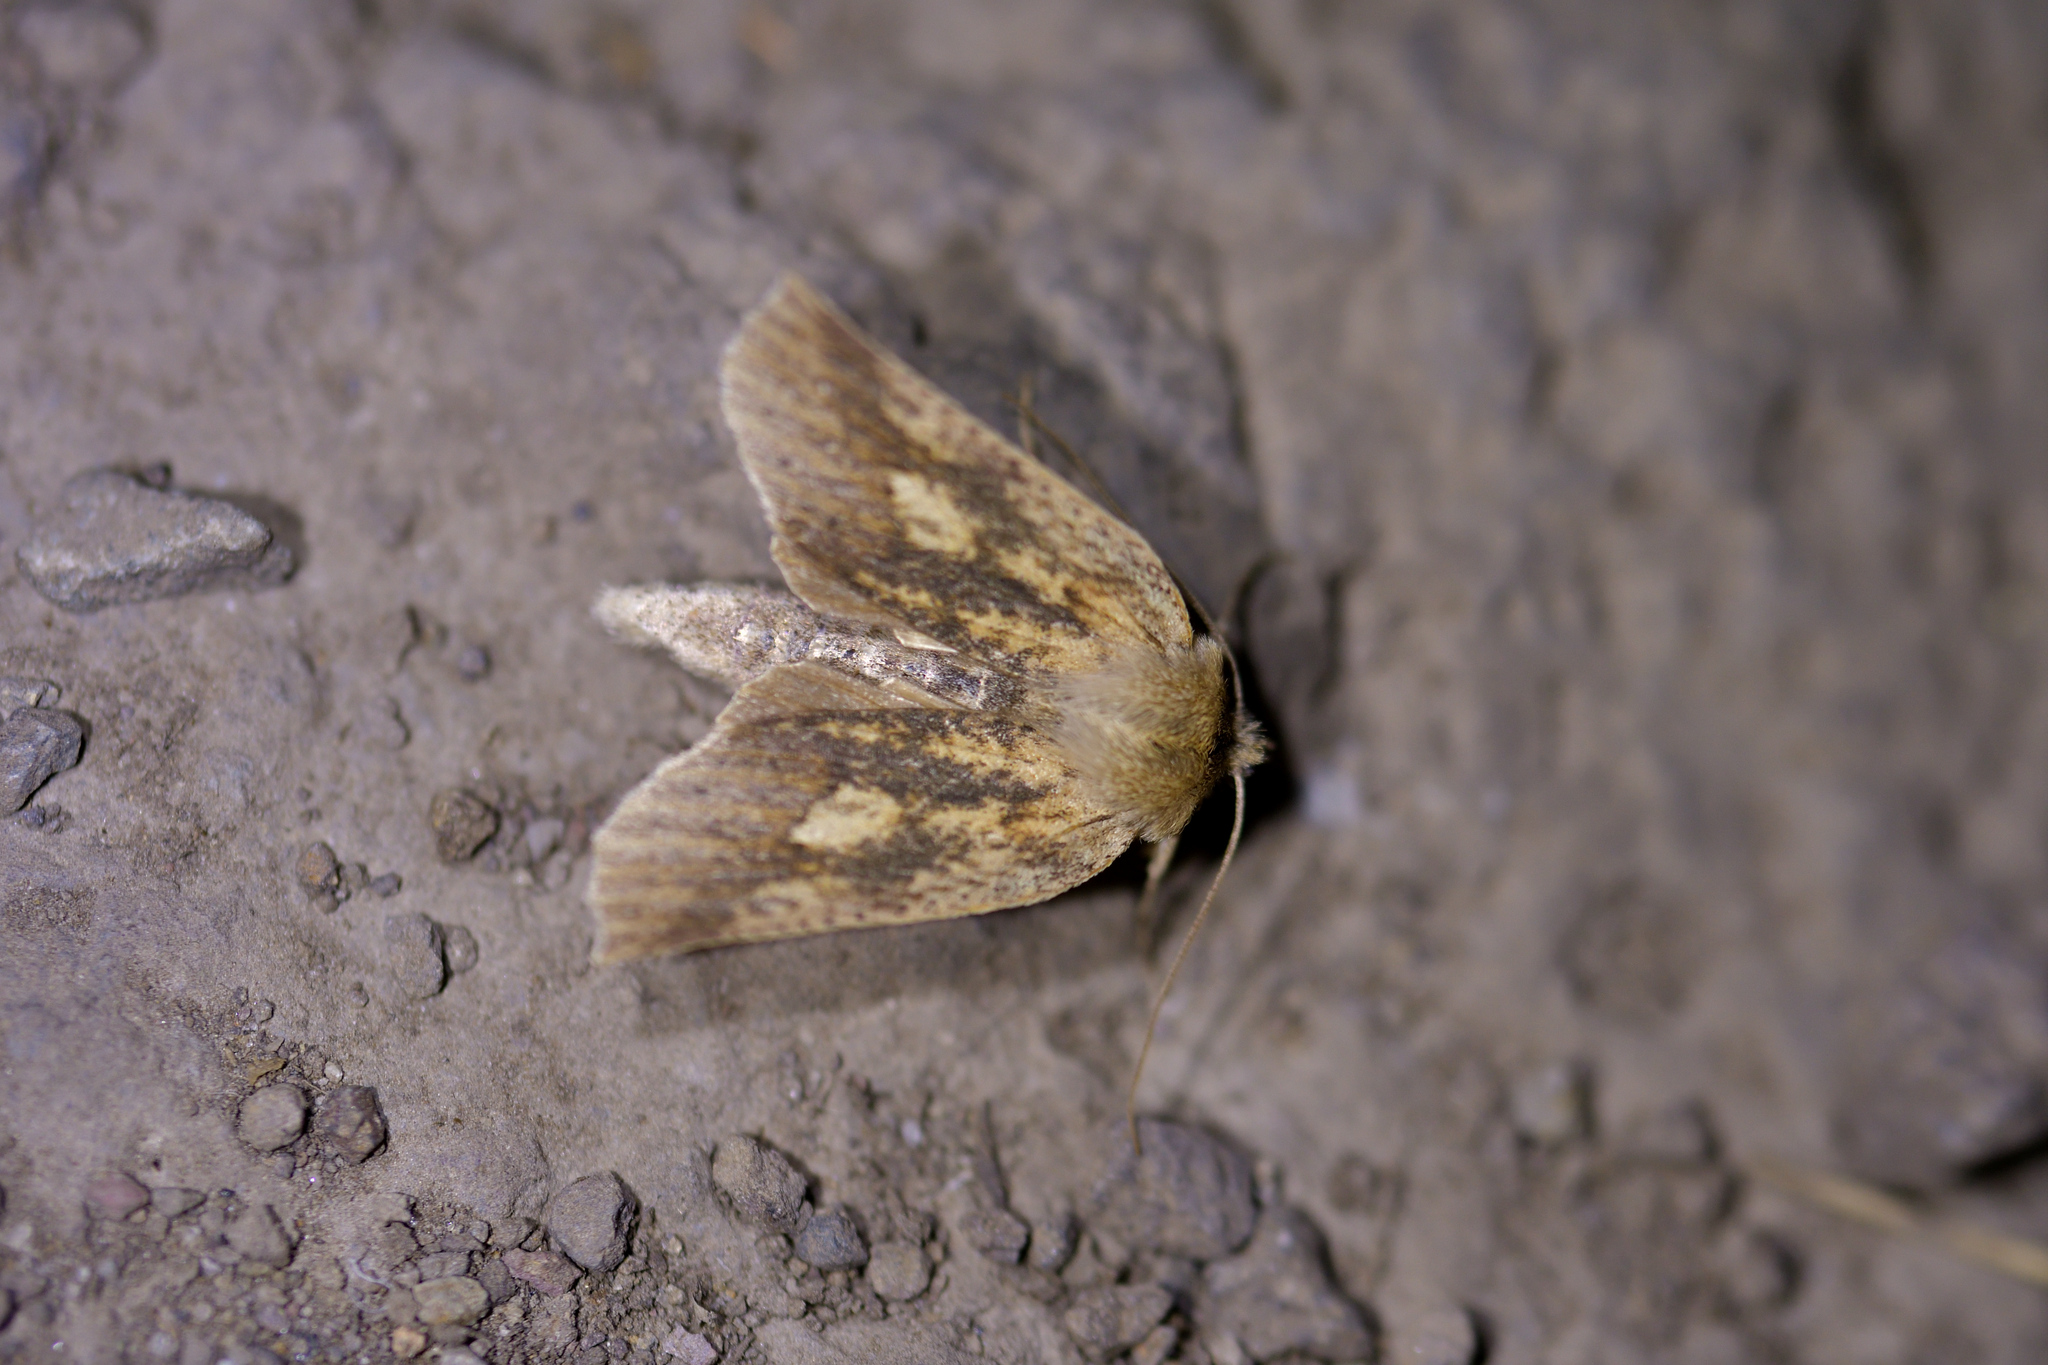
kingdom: Animalia
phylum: Arthropoda
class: Insecta
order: Lepidoptera
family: Geometridae
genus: Declana
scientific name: Declana leptomera
